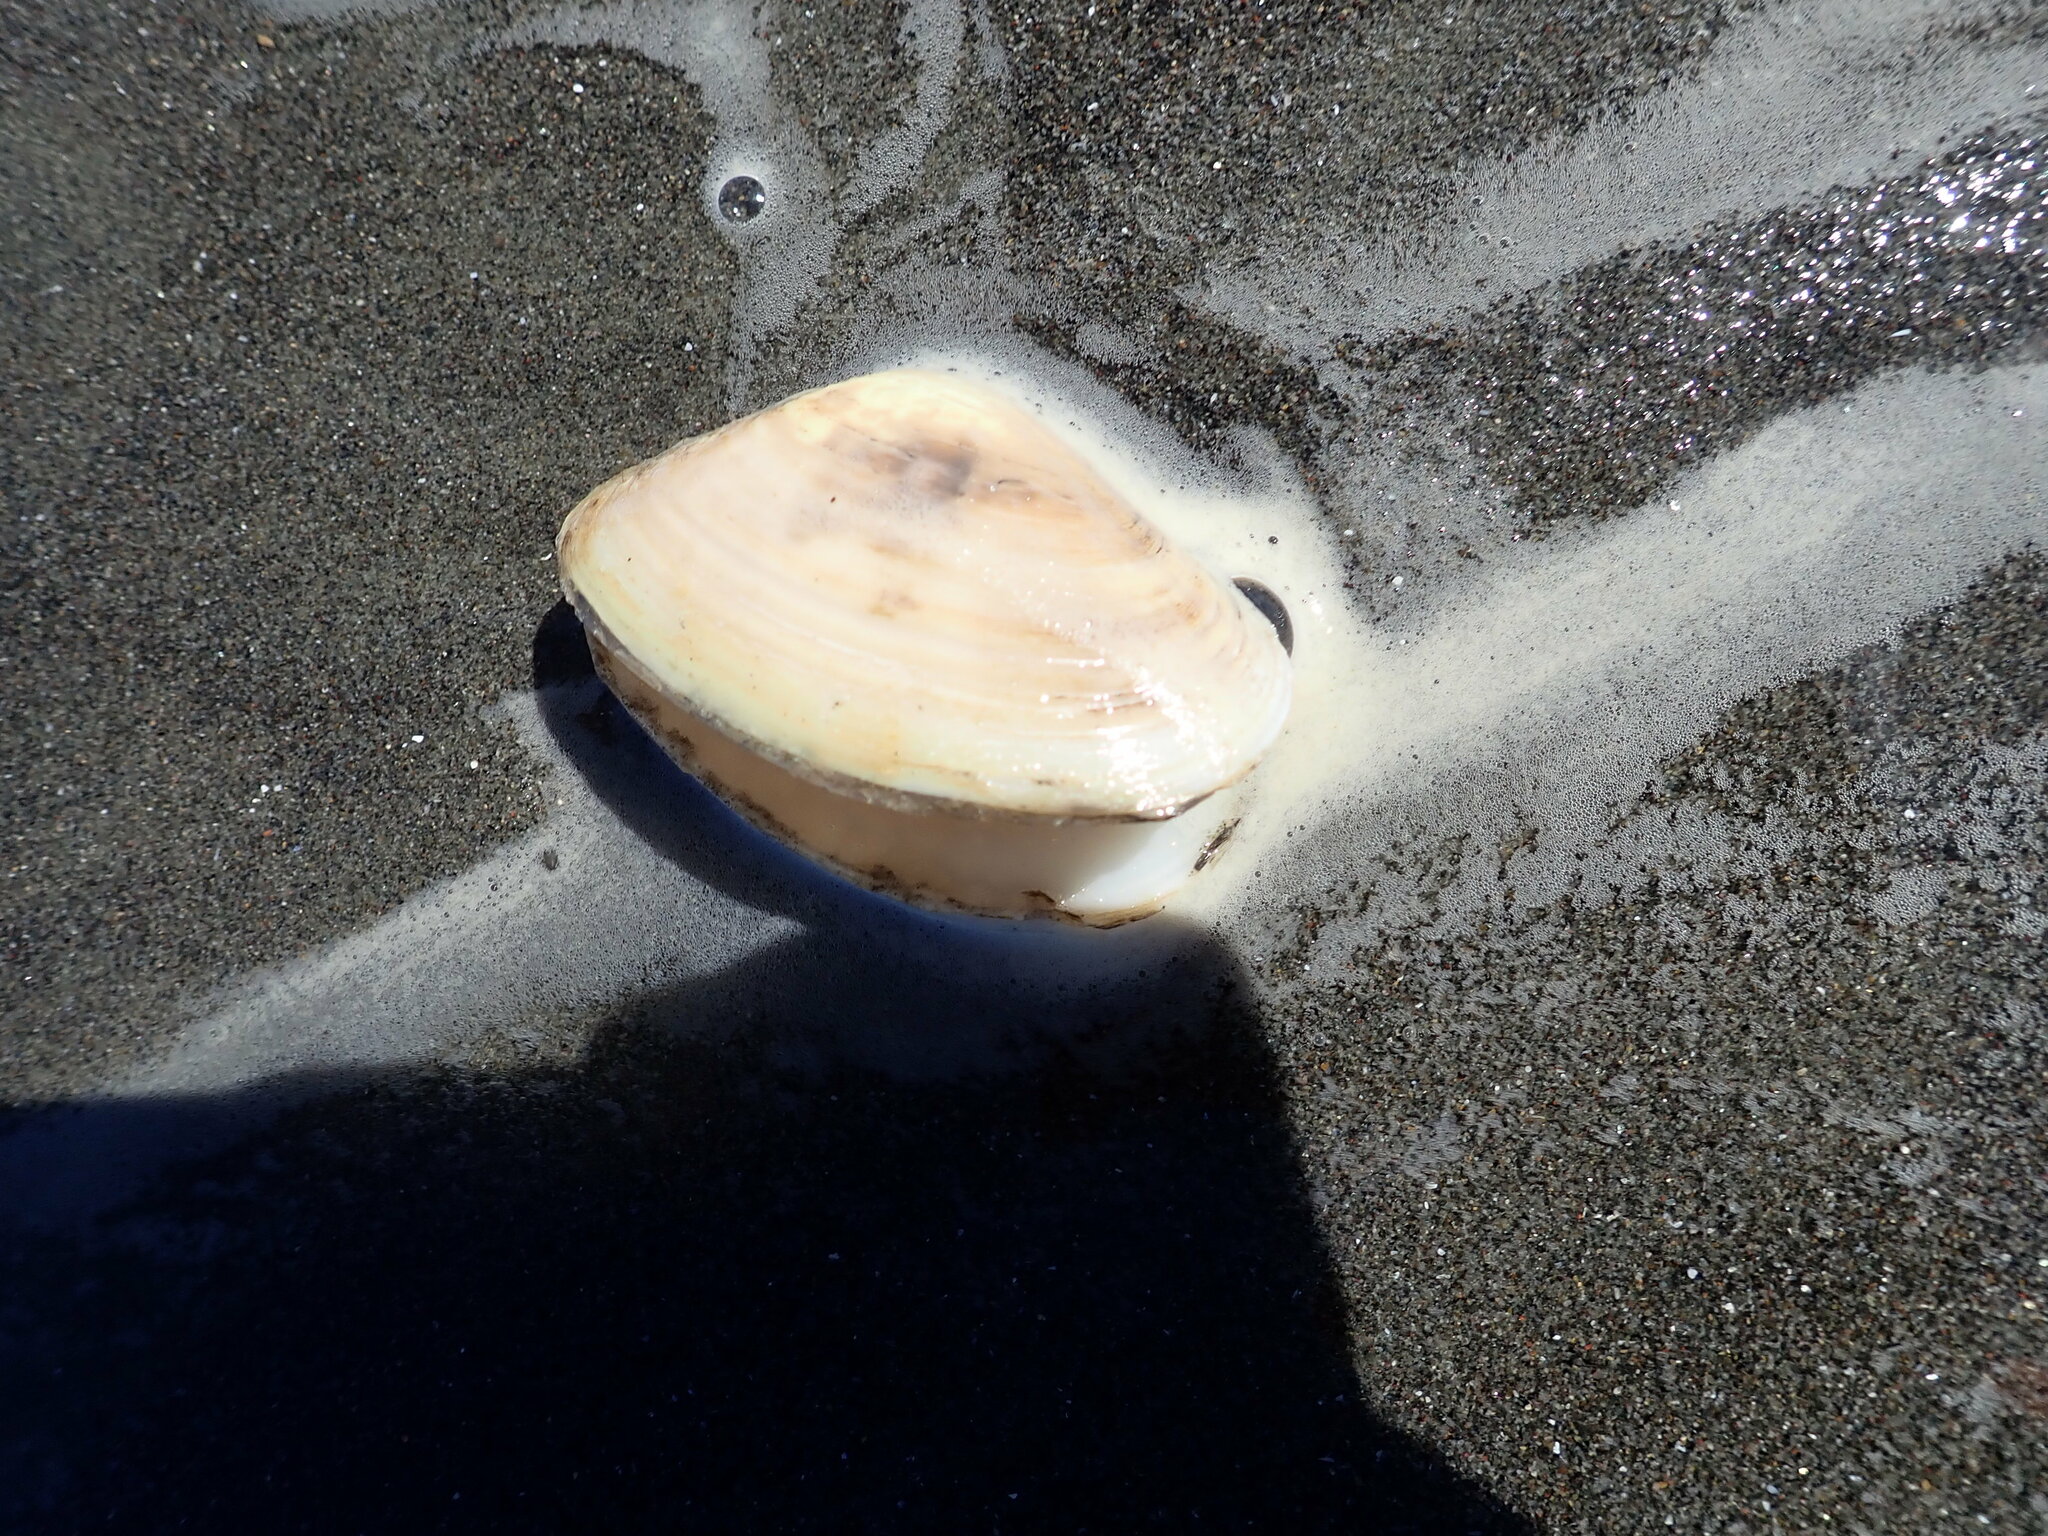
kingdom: Animalia
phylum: Mollusca
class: Bivalvia
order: Venerida
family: Mesodesmatidae
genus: Paphies
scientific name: Paphies donacina
